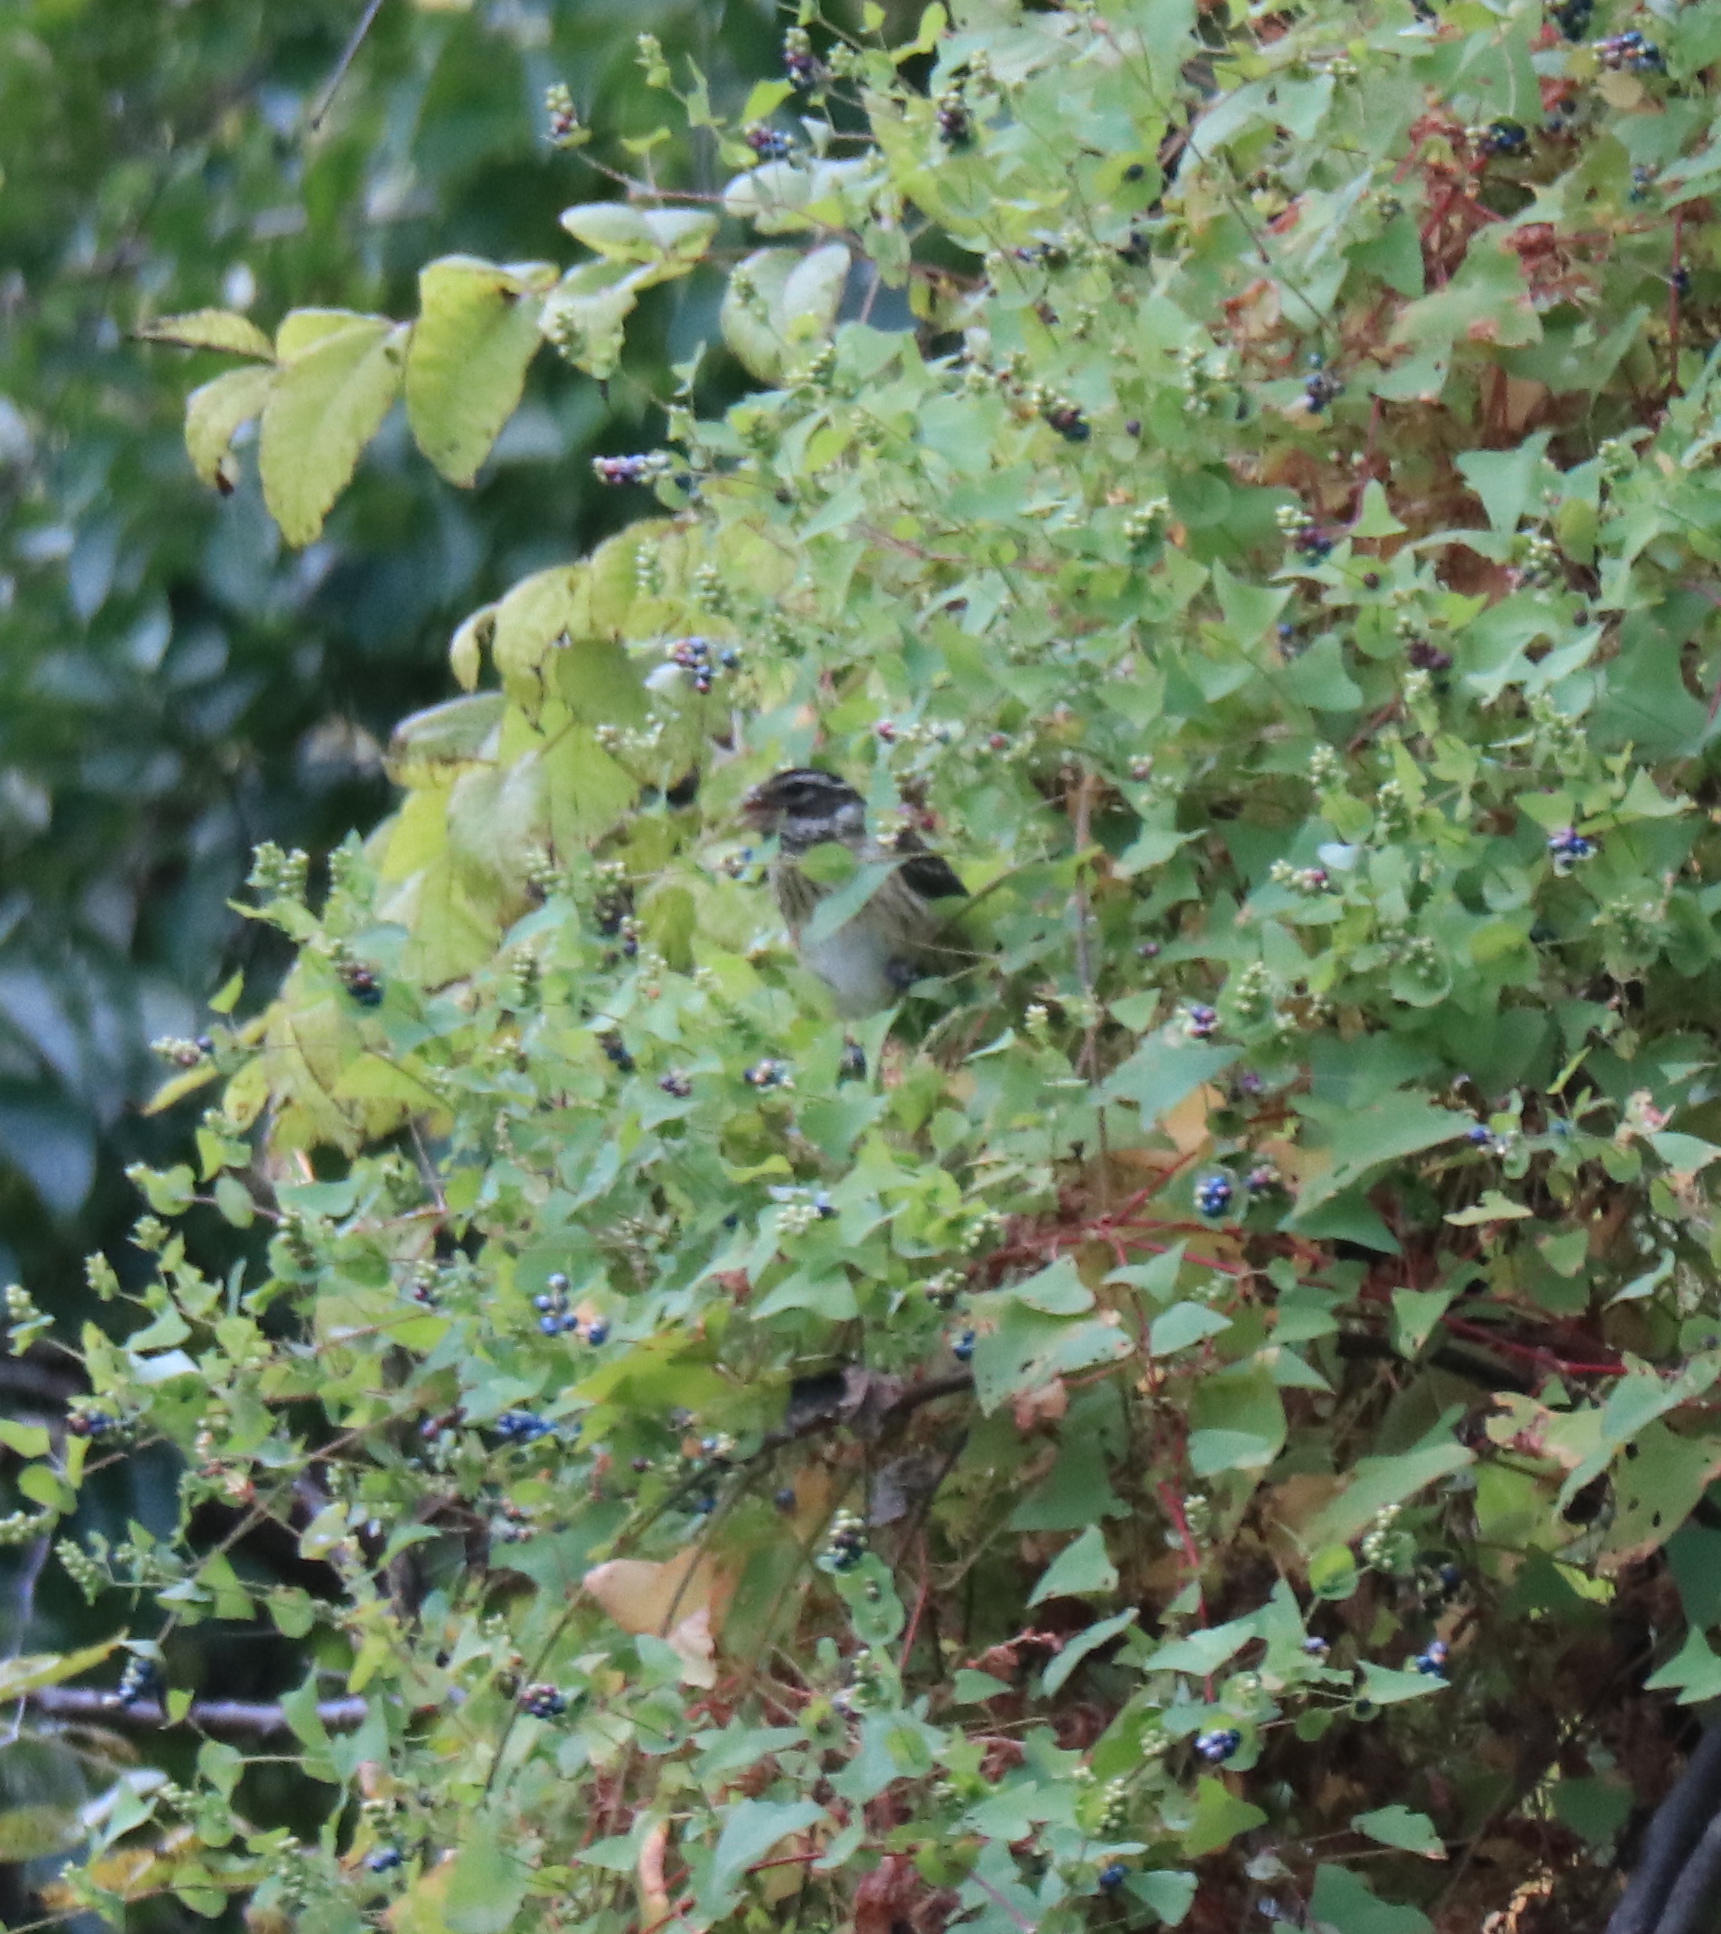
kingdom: Animalia
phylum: Chordata
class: Aves
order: Passeriformes
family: Cardinalidae
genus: Pheucticus
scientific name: Pheucticus ludovicianus
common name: Rose-breasted grosbeak
